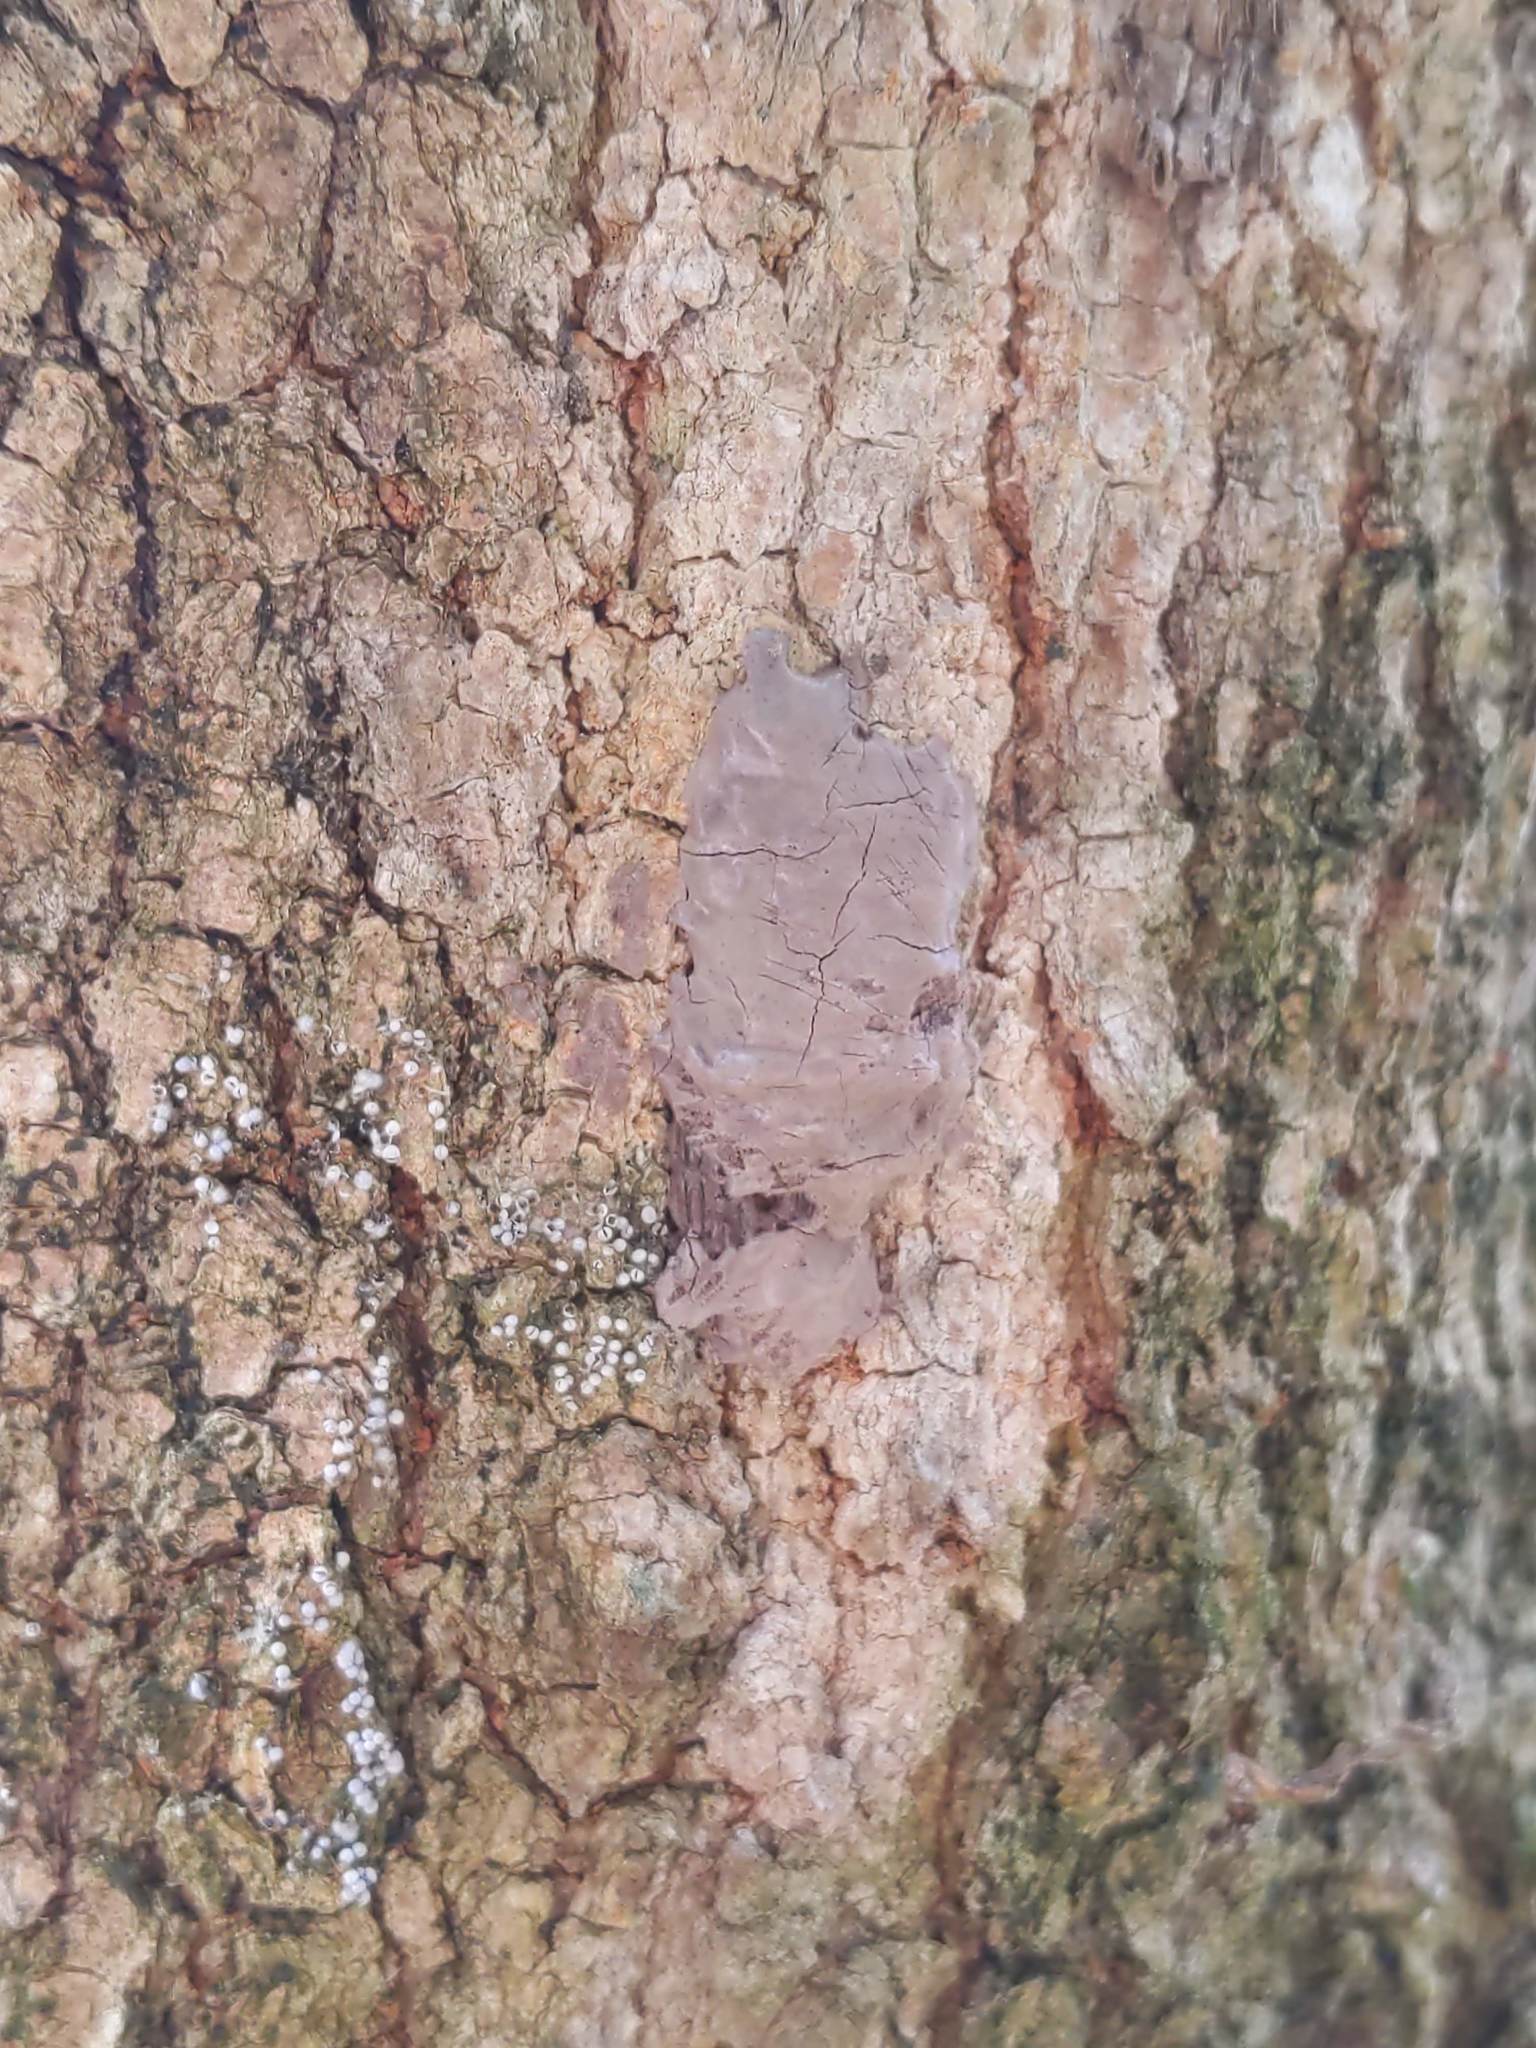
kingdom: Animalia
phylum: Arthropoda
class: Insecta
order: Hemiptera
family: Fulgoridae
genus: Lycorma
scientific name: Lycorma delicatula
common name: Spotted lanternfly
